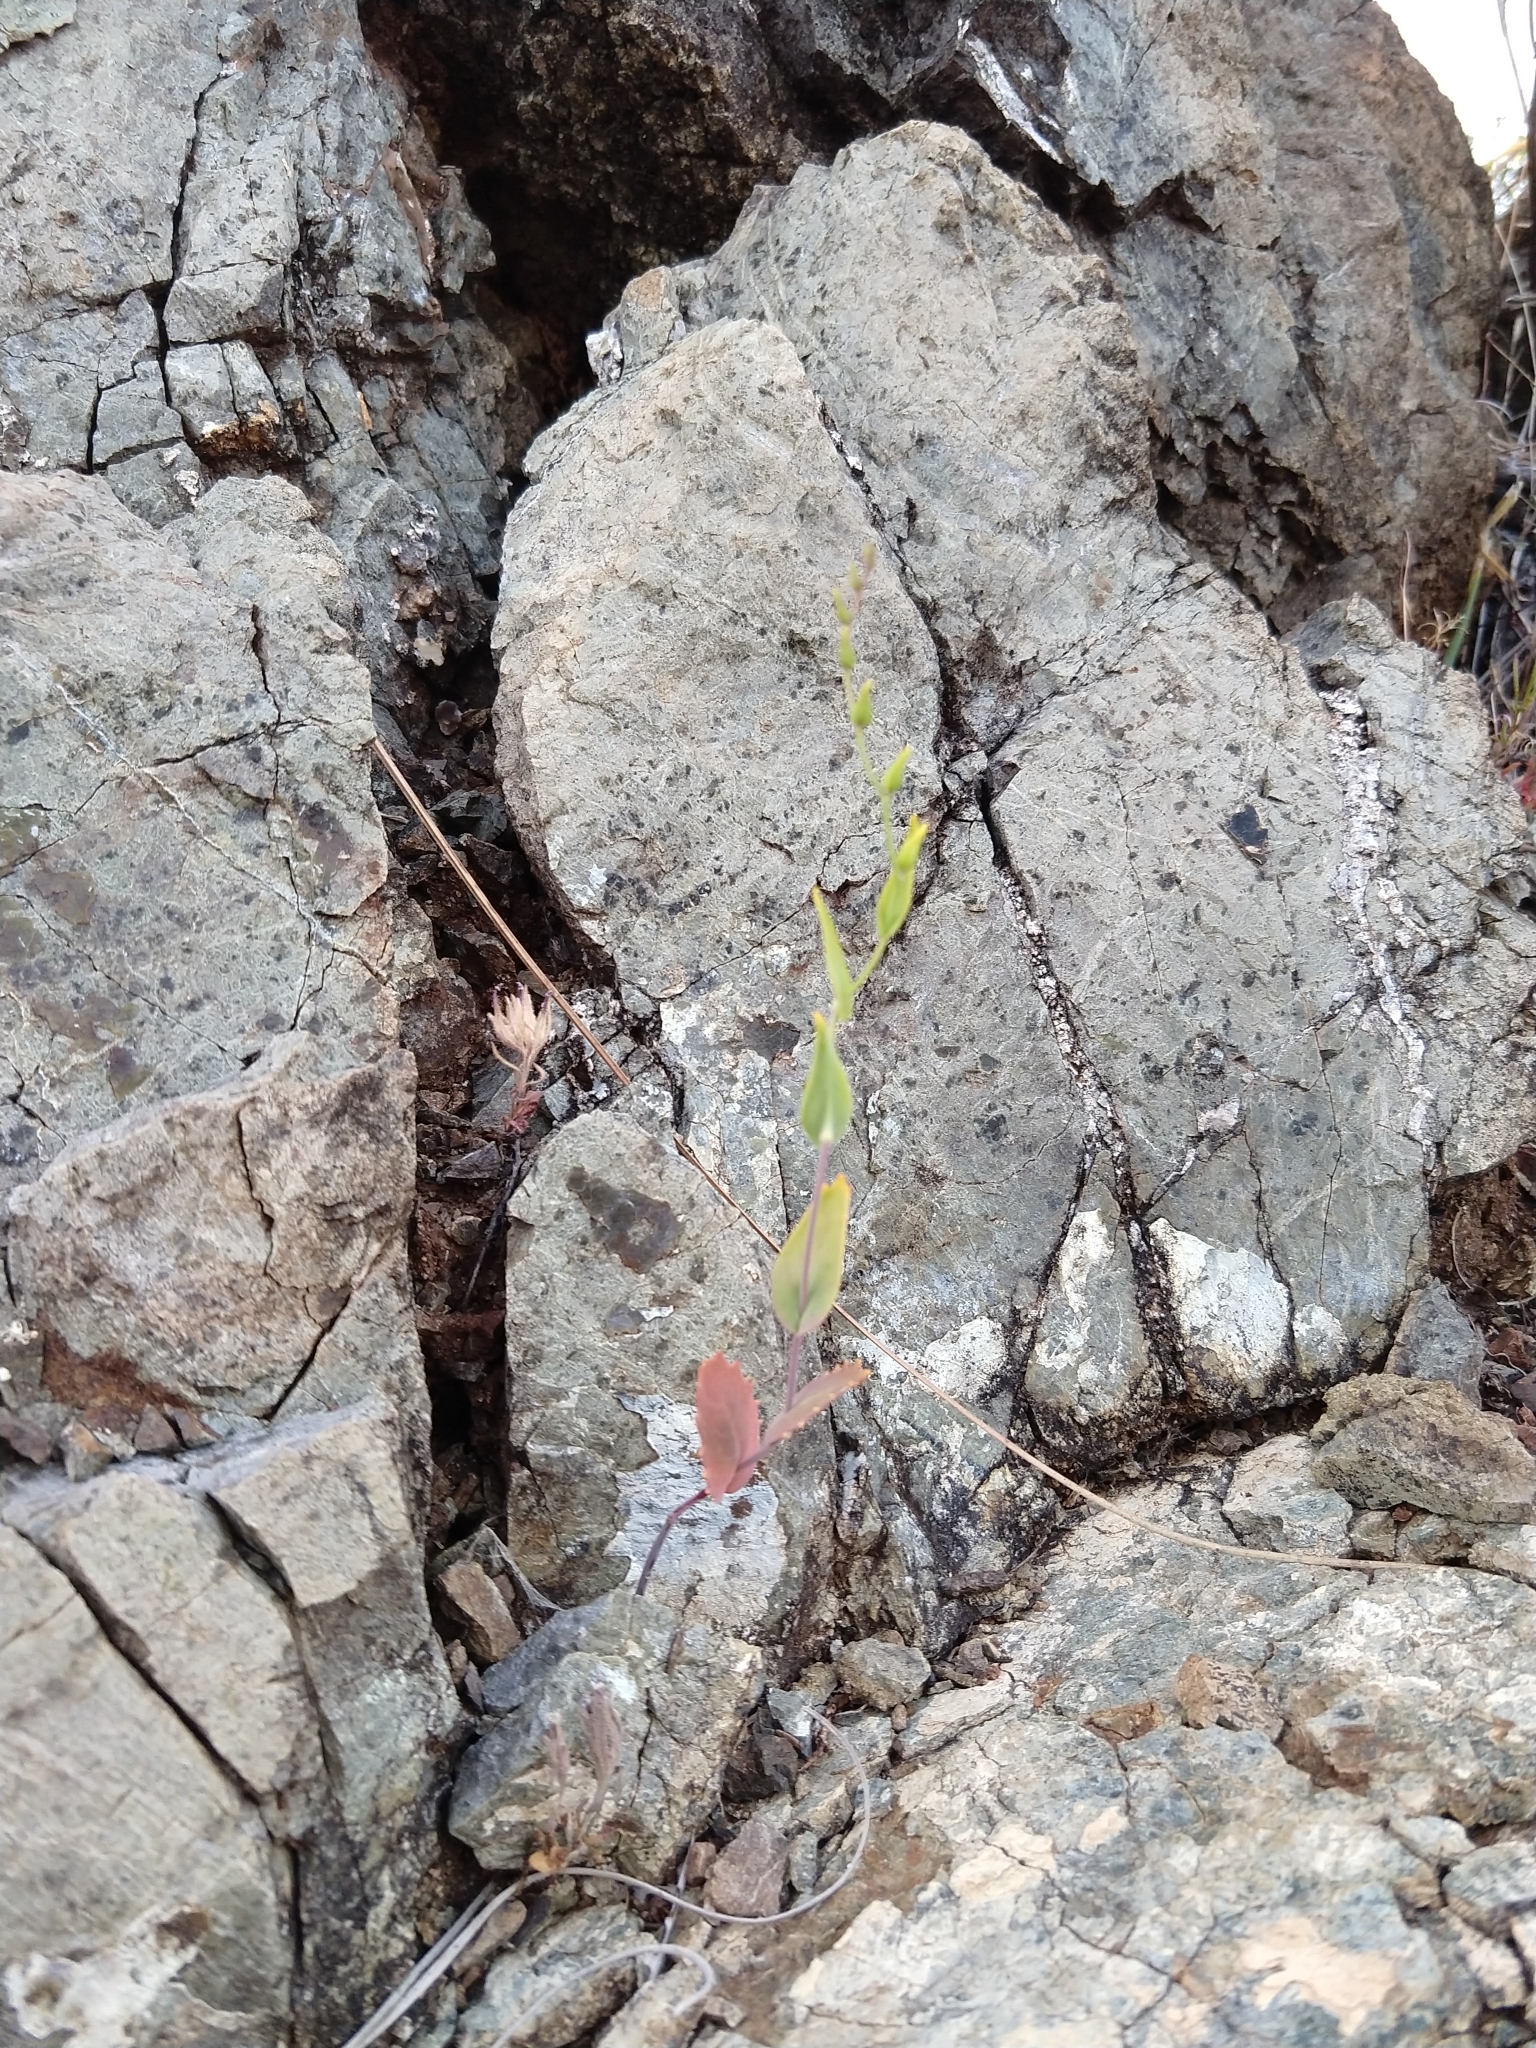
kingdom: Plantae
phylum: Tracheophyta
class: Magnoliopsida
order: Brassicales
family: Brassicaceae
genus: Streptanthus
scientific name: Streptanthus hesperidis
